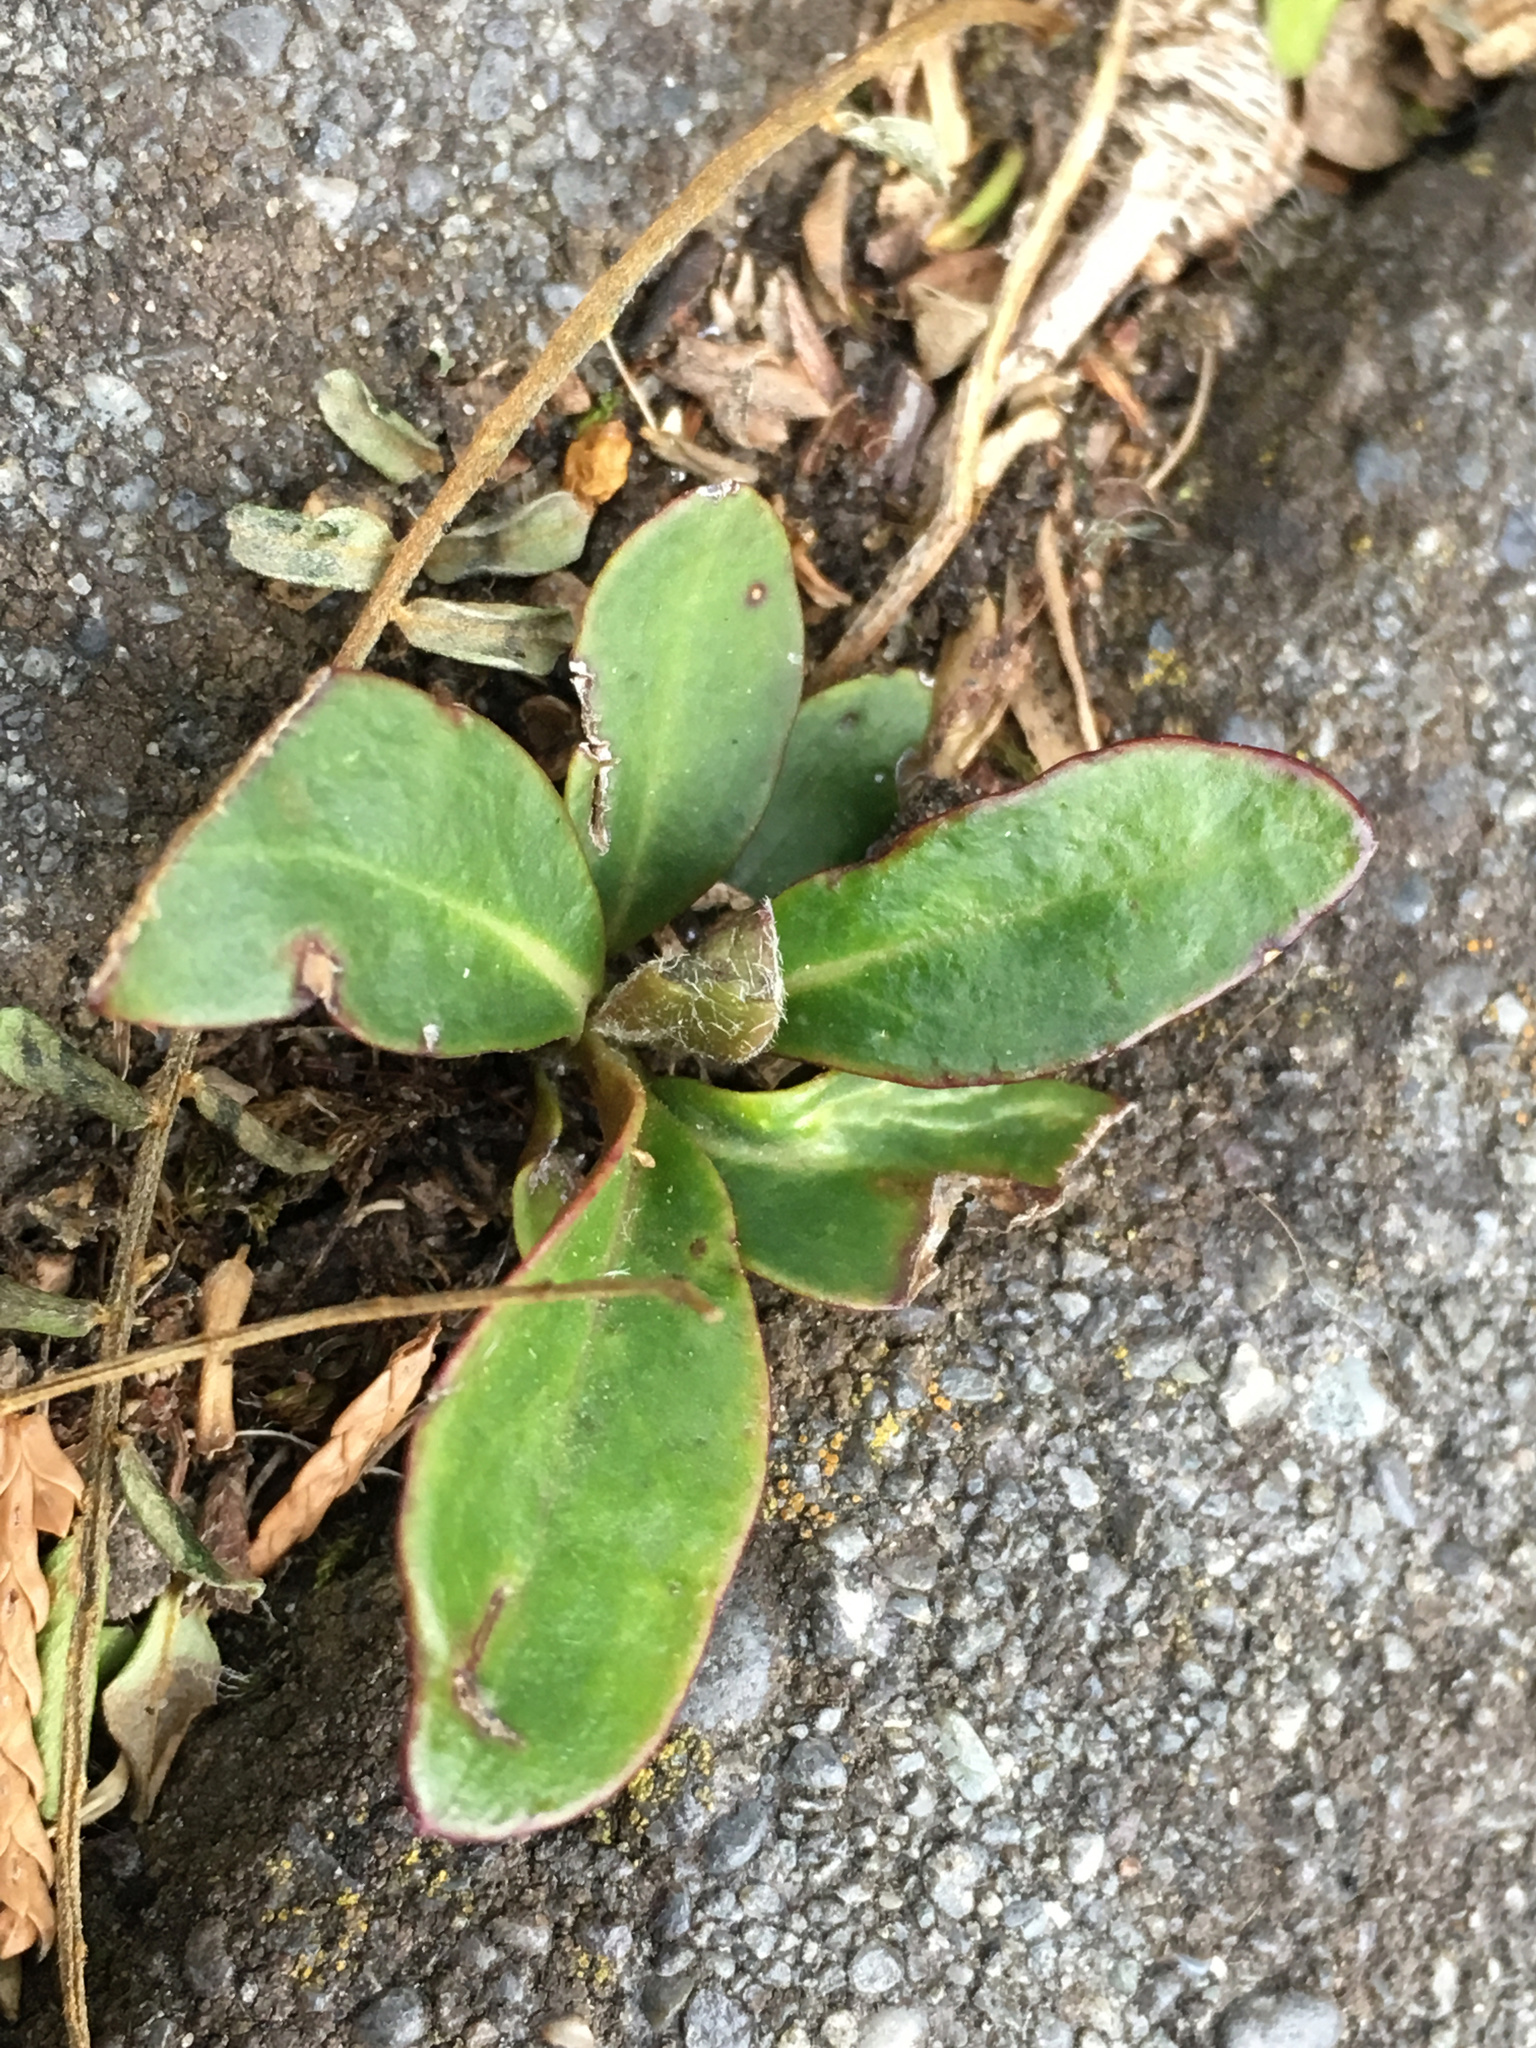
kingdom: Plantae
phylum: Tracheophyta
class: Magnoliopsida
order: Asterales
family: Asteraceae
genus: Pachystegia
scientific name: Pachystegia insignis
